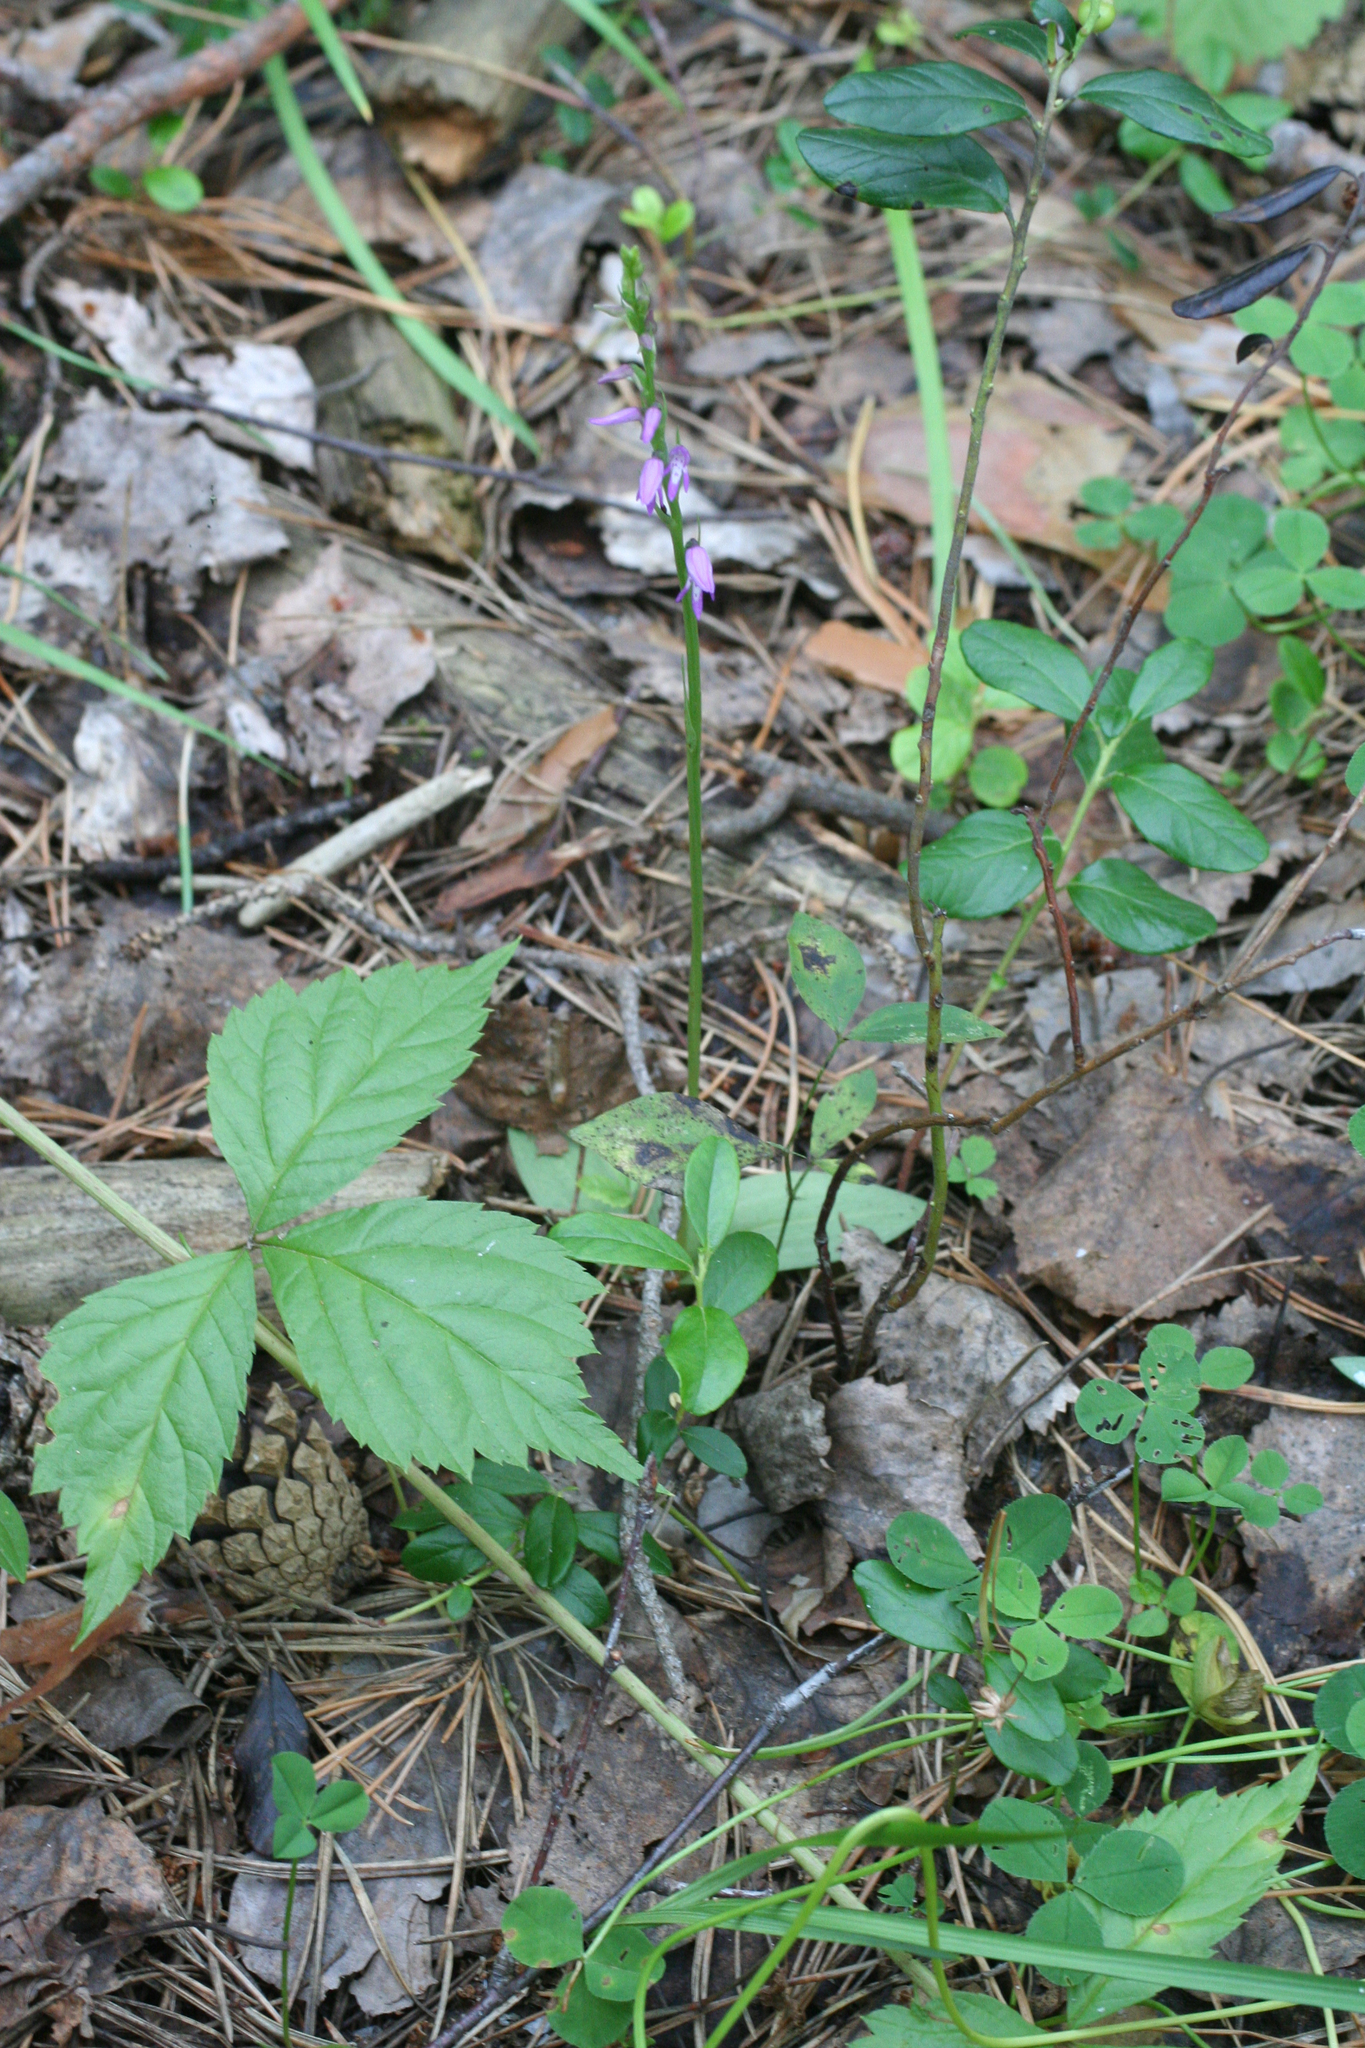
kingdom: Plantae
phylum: Tracheophyta
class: Liliopsida
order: Asparagales
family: Orchidaceae
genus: Hemipilia
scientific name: Hemipilia cucullata
